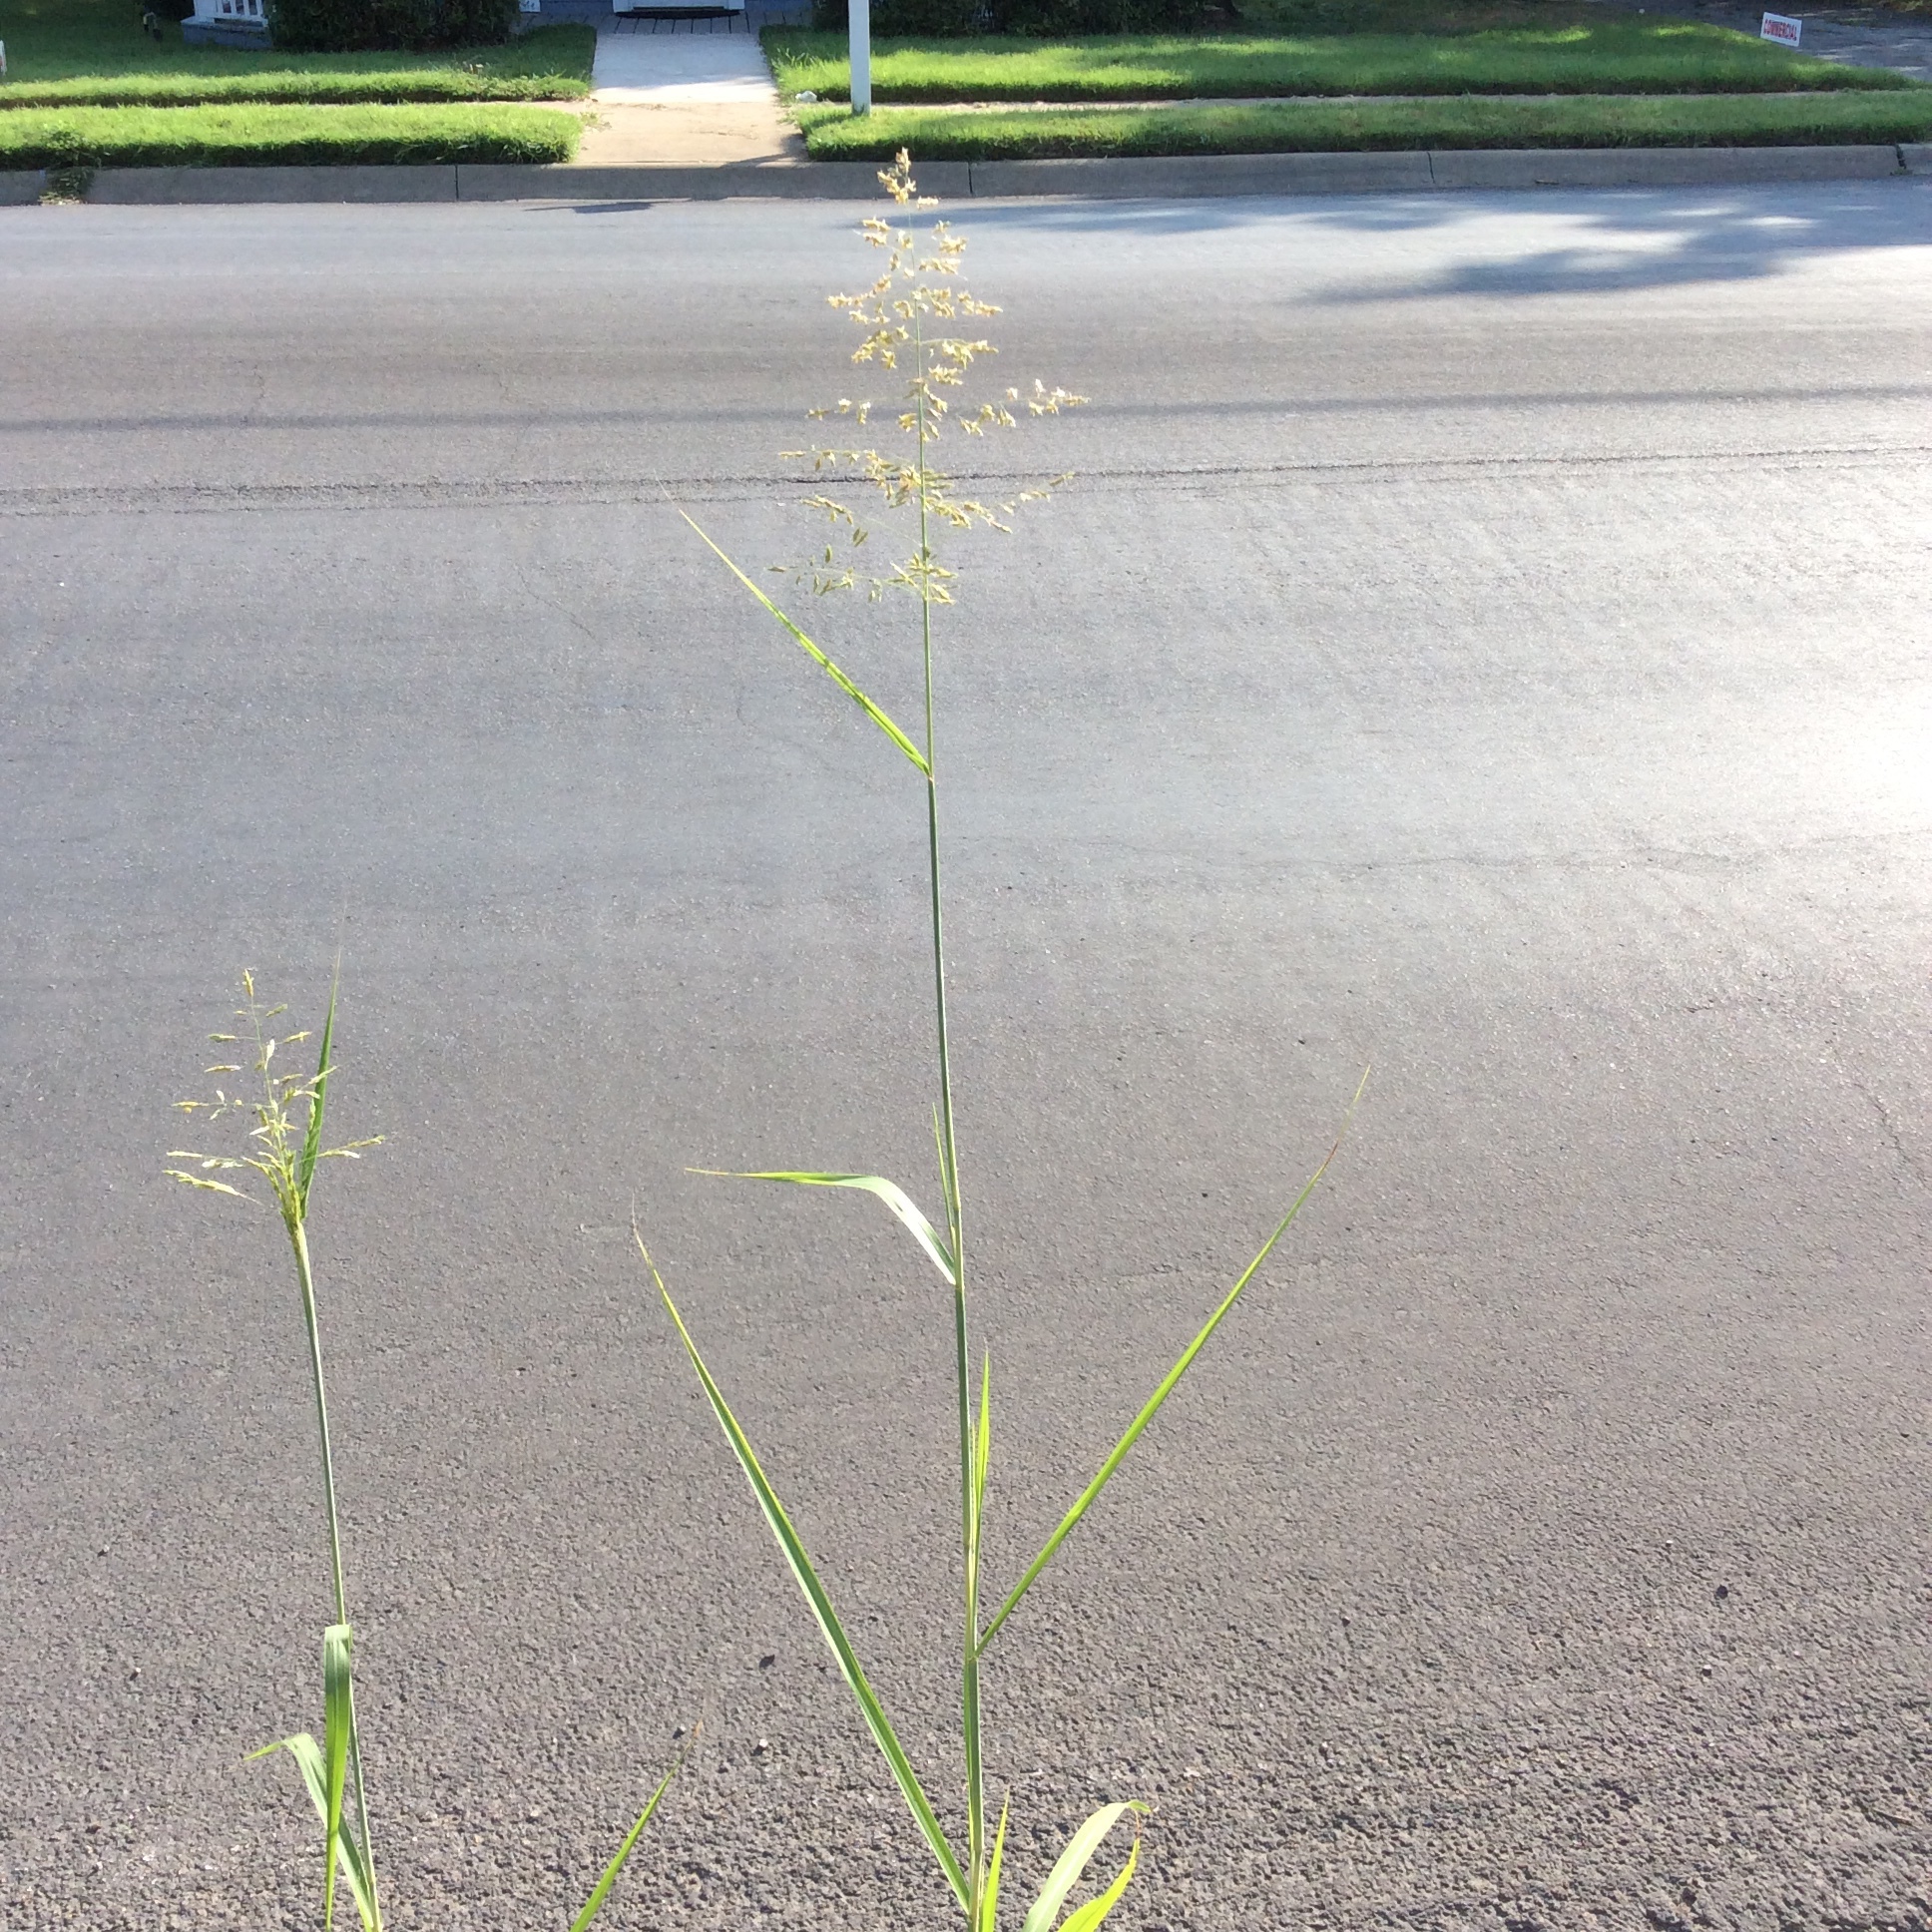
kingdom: Plantae
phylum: Tracheophyta
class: Liliopsida
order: Poales
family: Poaceae
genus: Sorghum
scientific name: Sorghum halepense
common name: Johnson-grass
